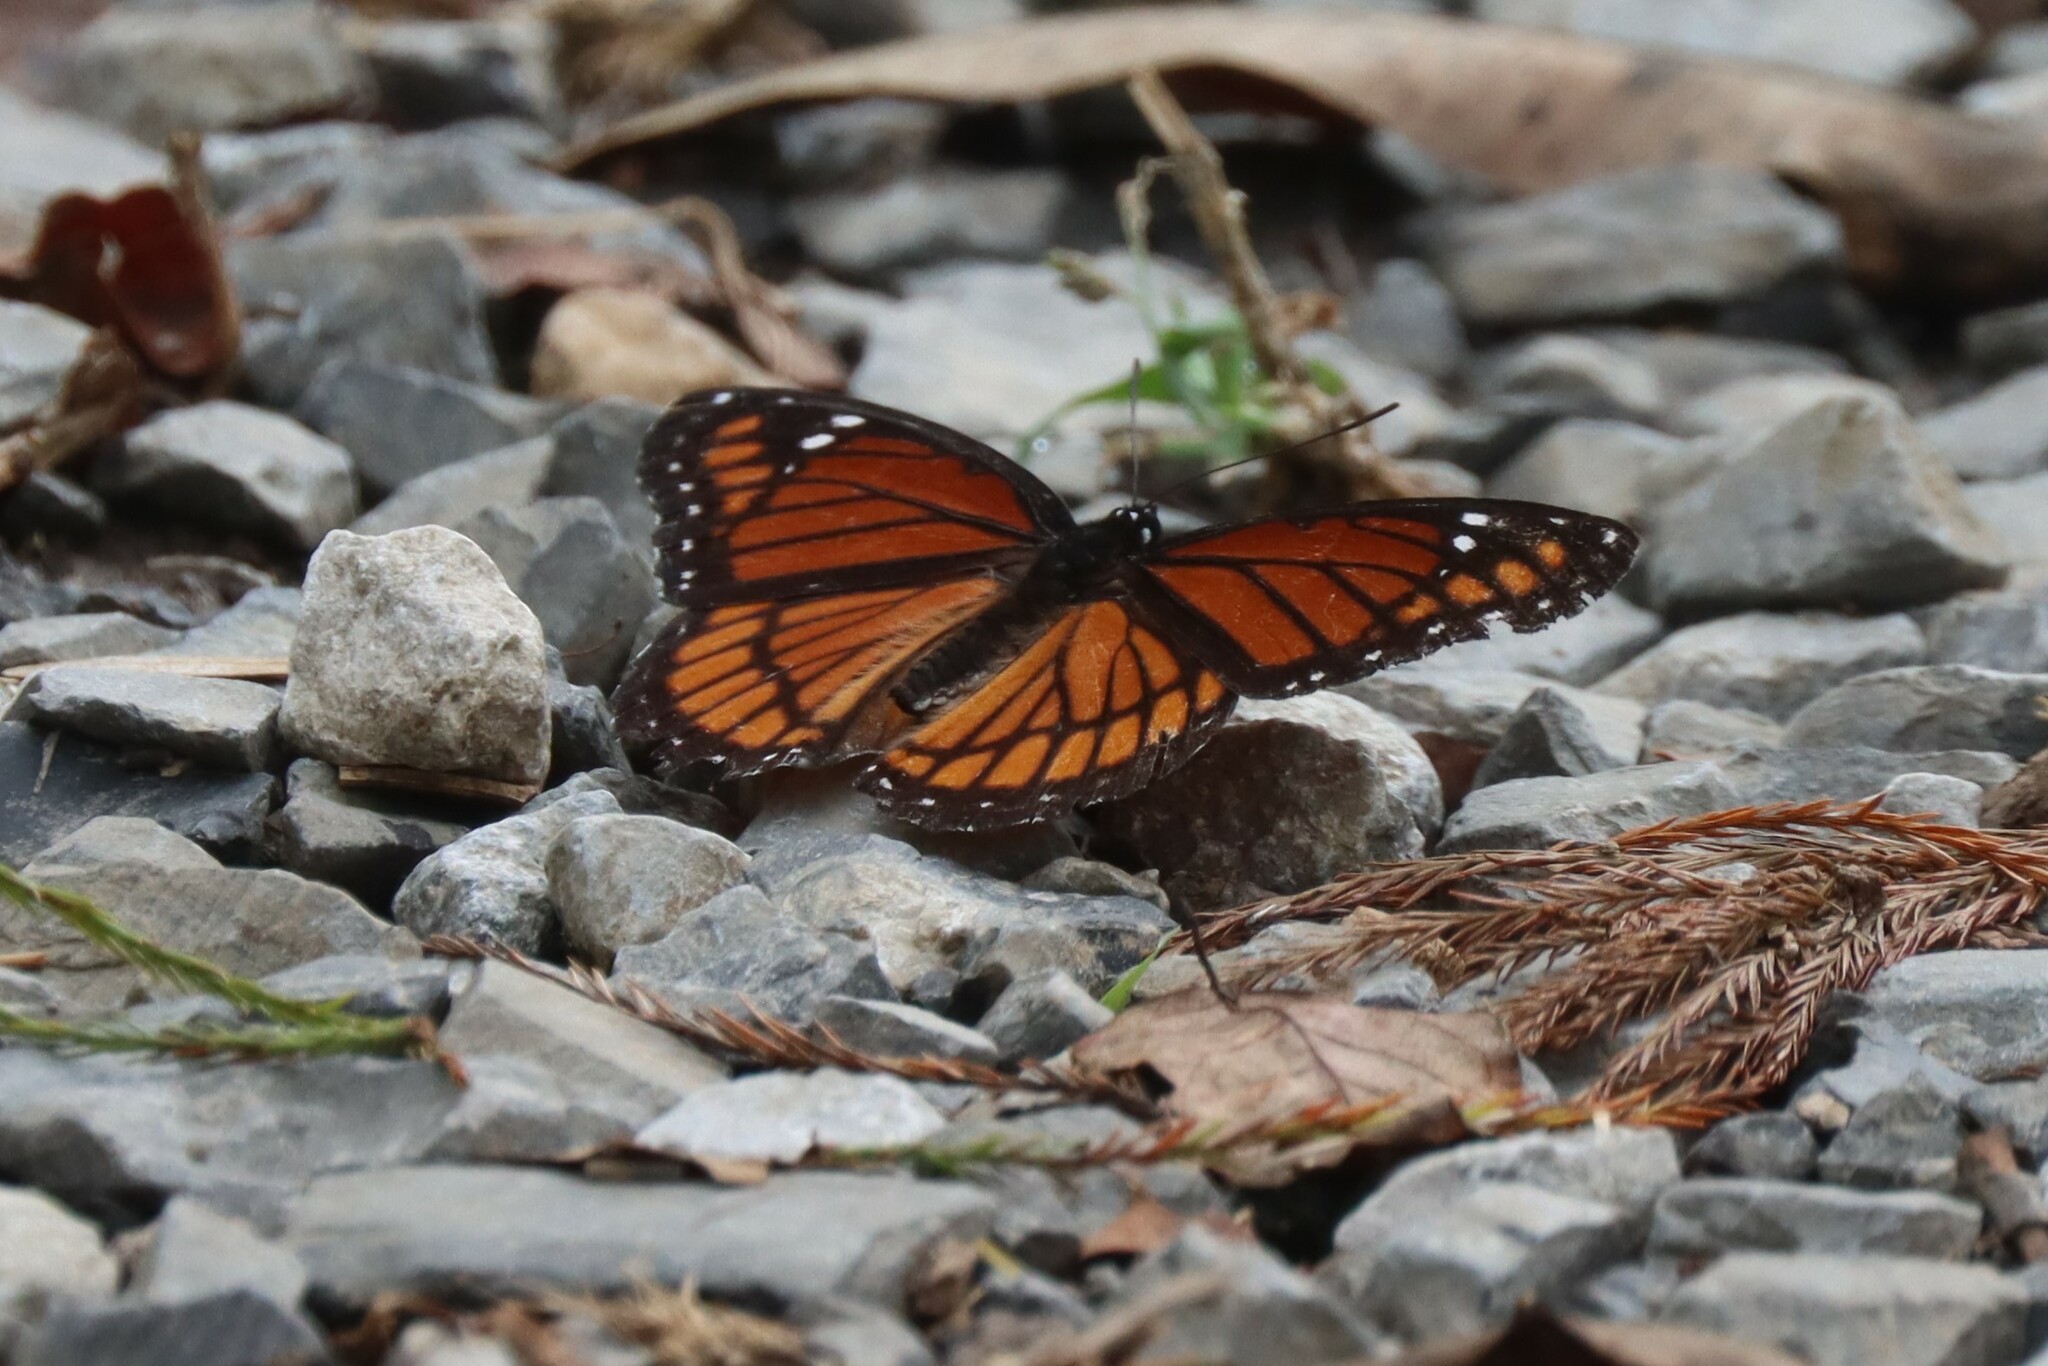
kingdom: Animalia
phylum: Arthropoda
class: Insecta
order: Lepidoptera
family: Nymphalidae
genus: Limenitis
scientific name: Limenitis archippus
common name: Viceroy
